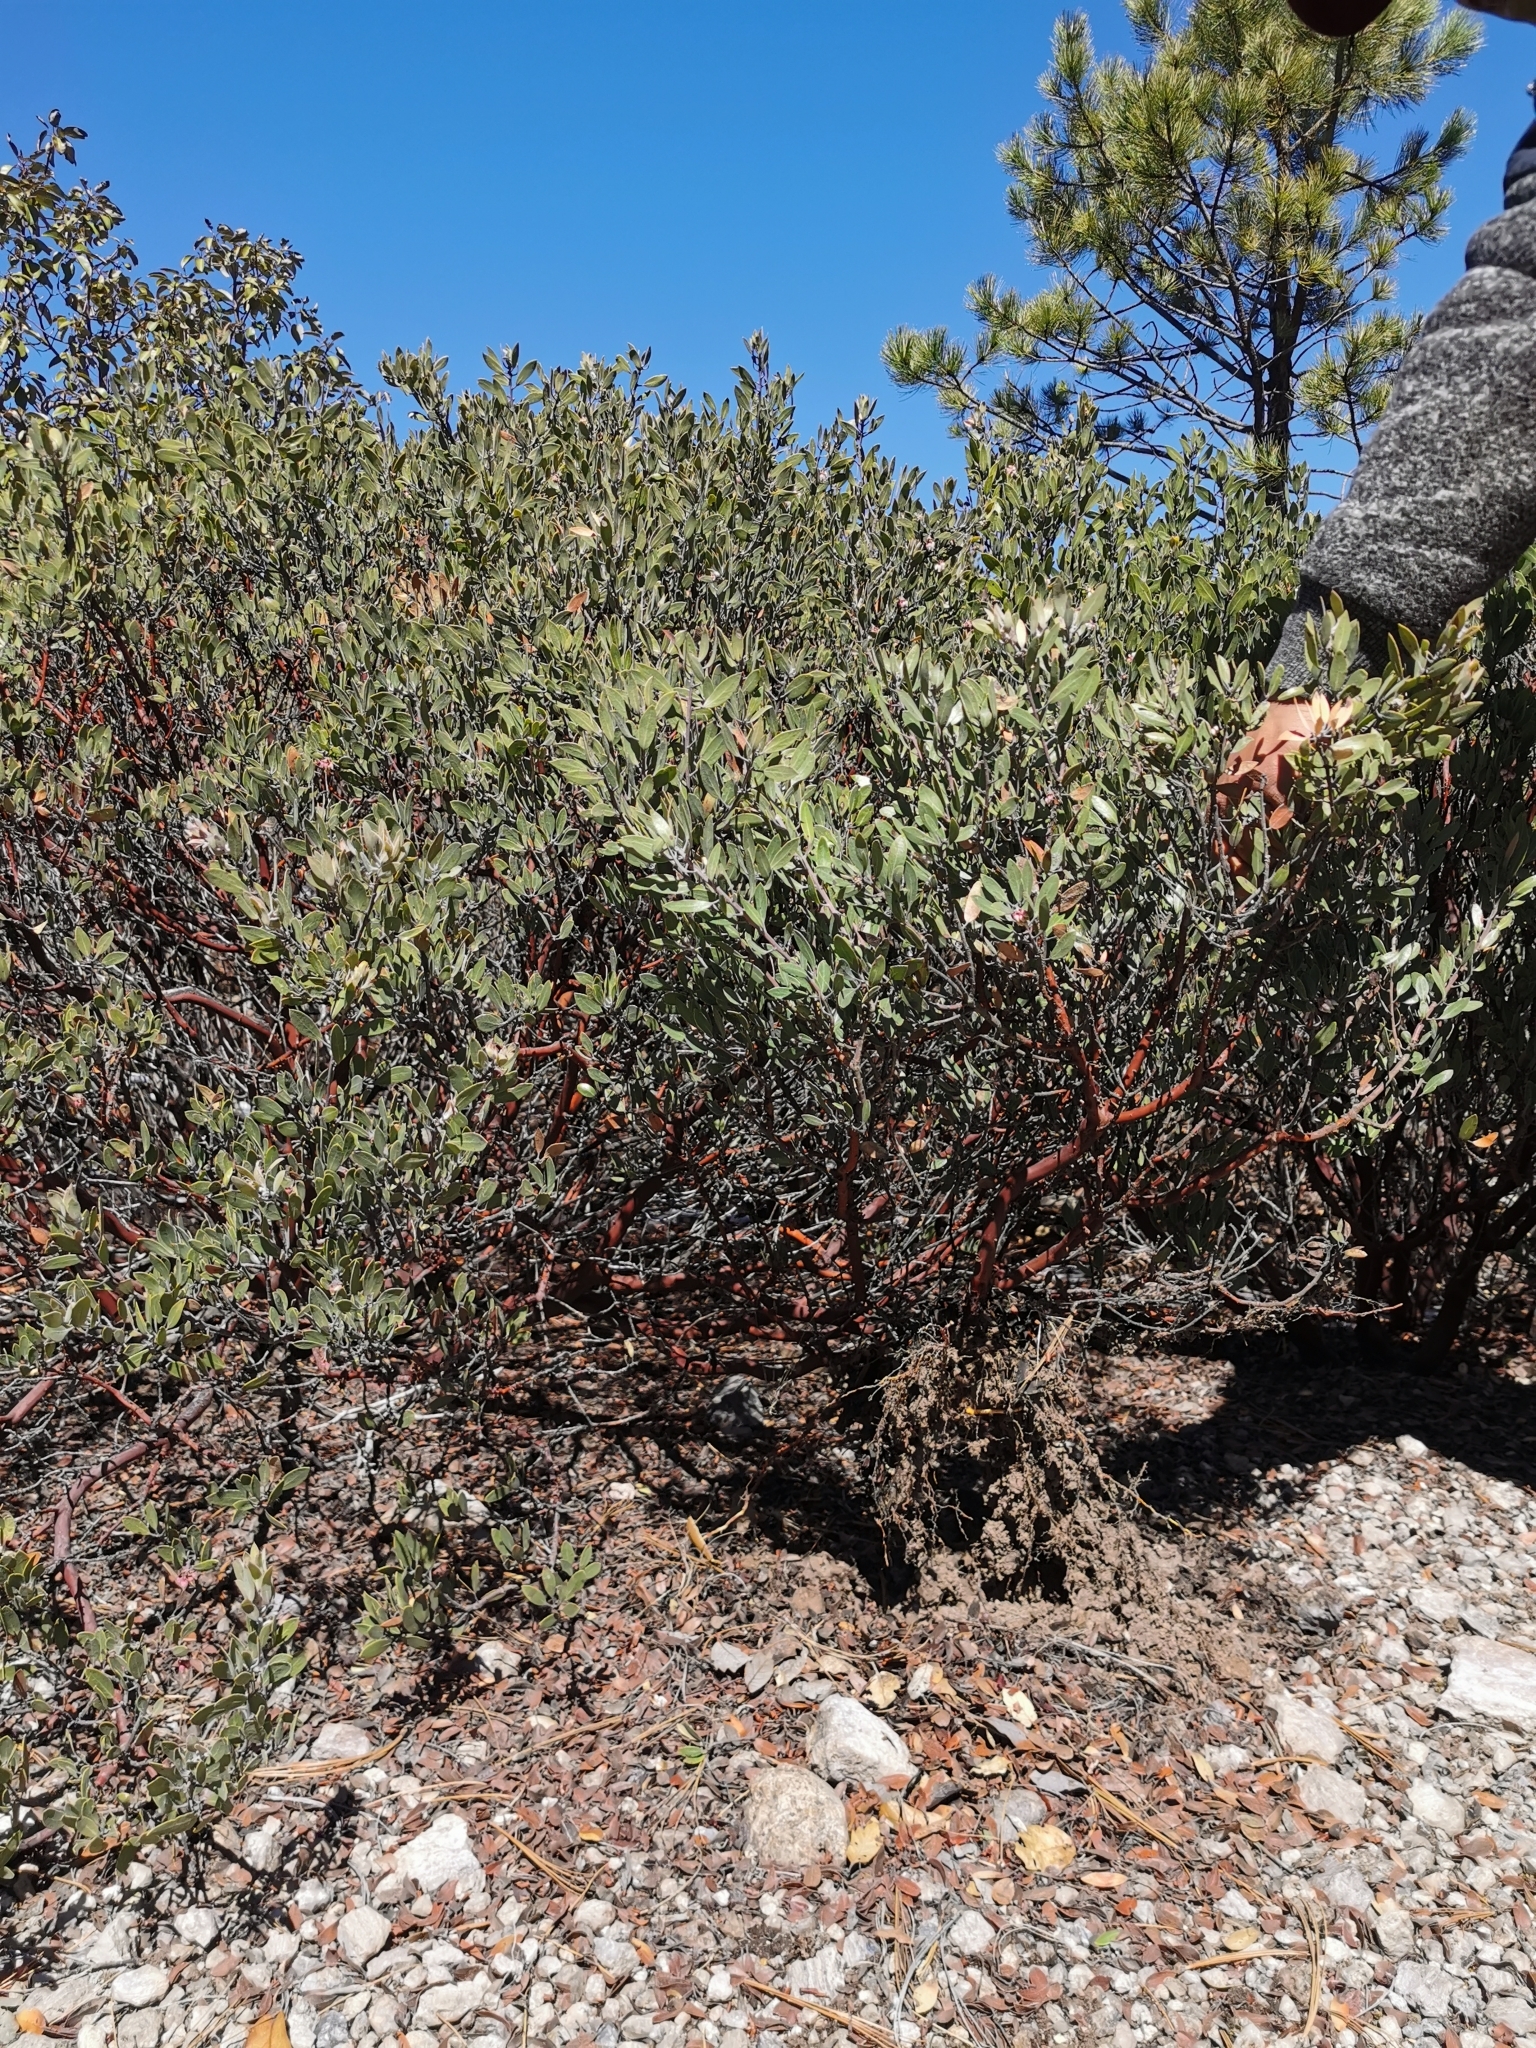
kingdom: Plantae
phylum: Tracheophyta
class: Magnoliopsida
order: Ericales
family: Ericaceae
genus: Arctostaphylos
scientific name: Arctostaphylos pungens
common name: Mexican manzanita
